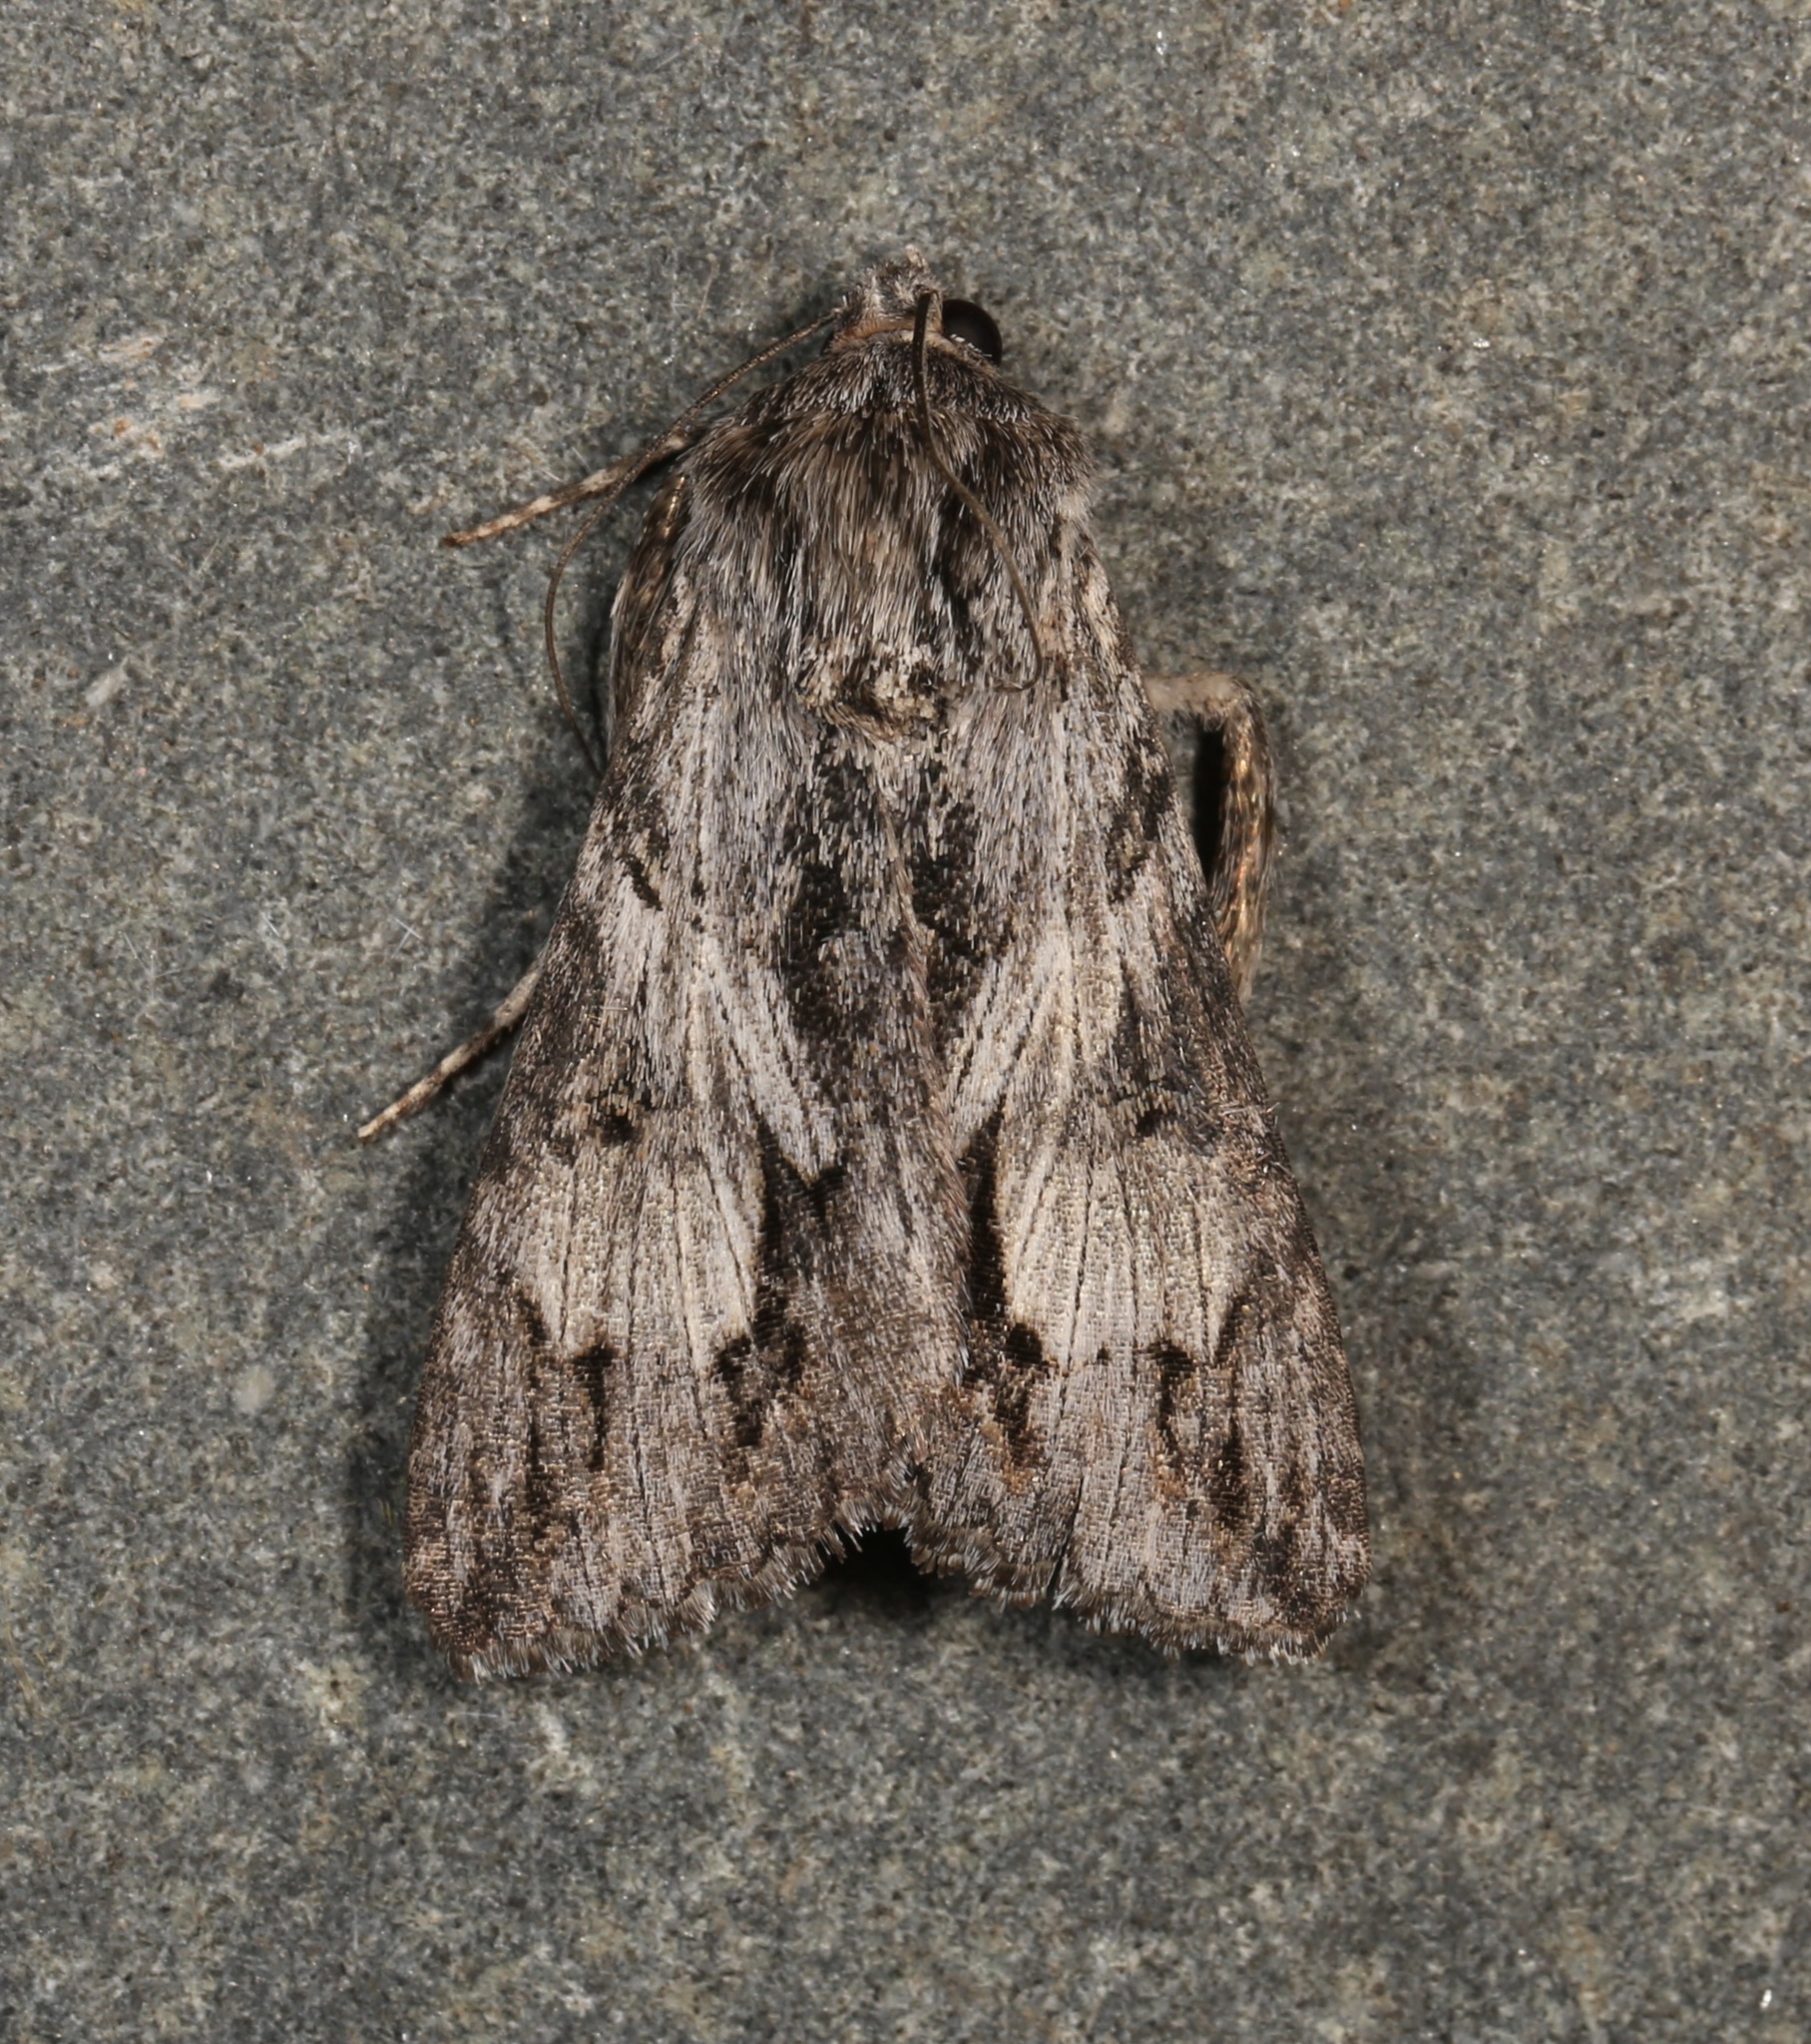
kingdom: Animalia
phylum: Arthropoda
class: Insecta
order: Lepidoptera
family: Erebidae
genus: Melipotis
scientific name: Melipotis jucunda
